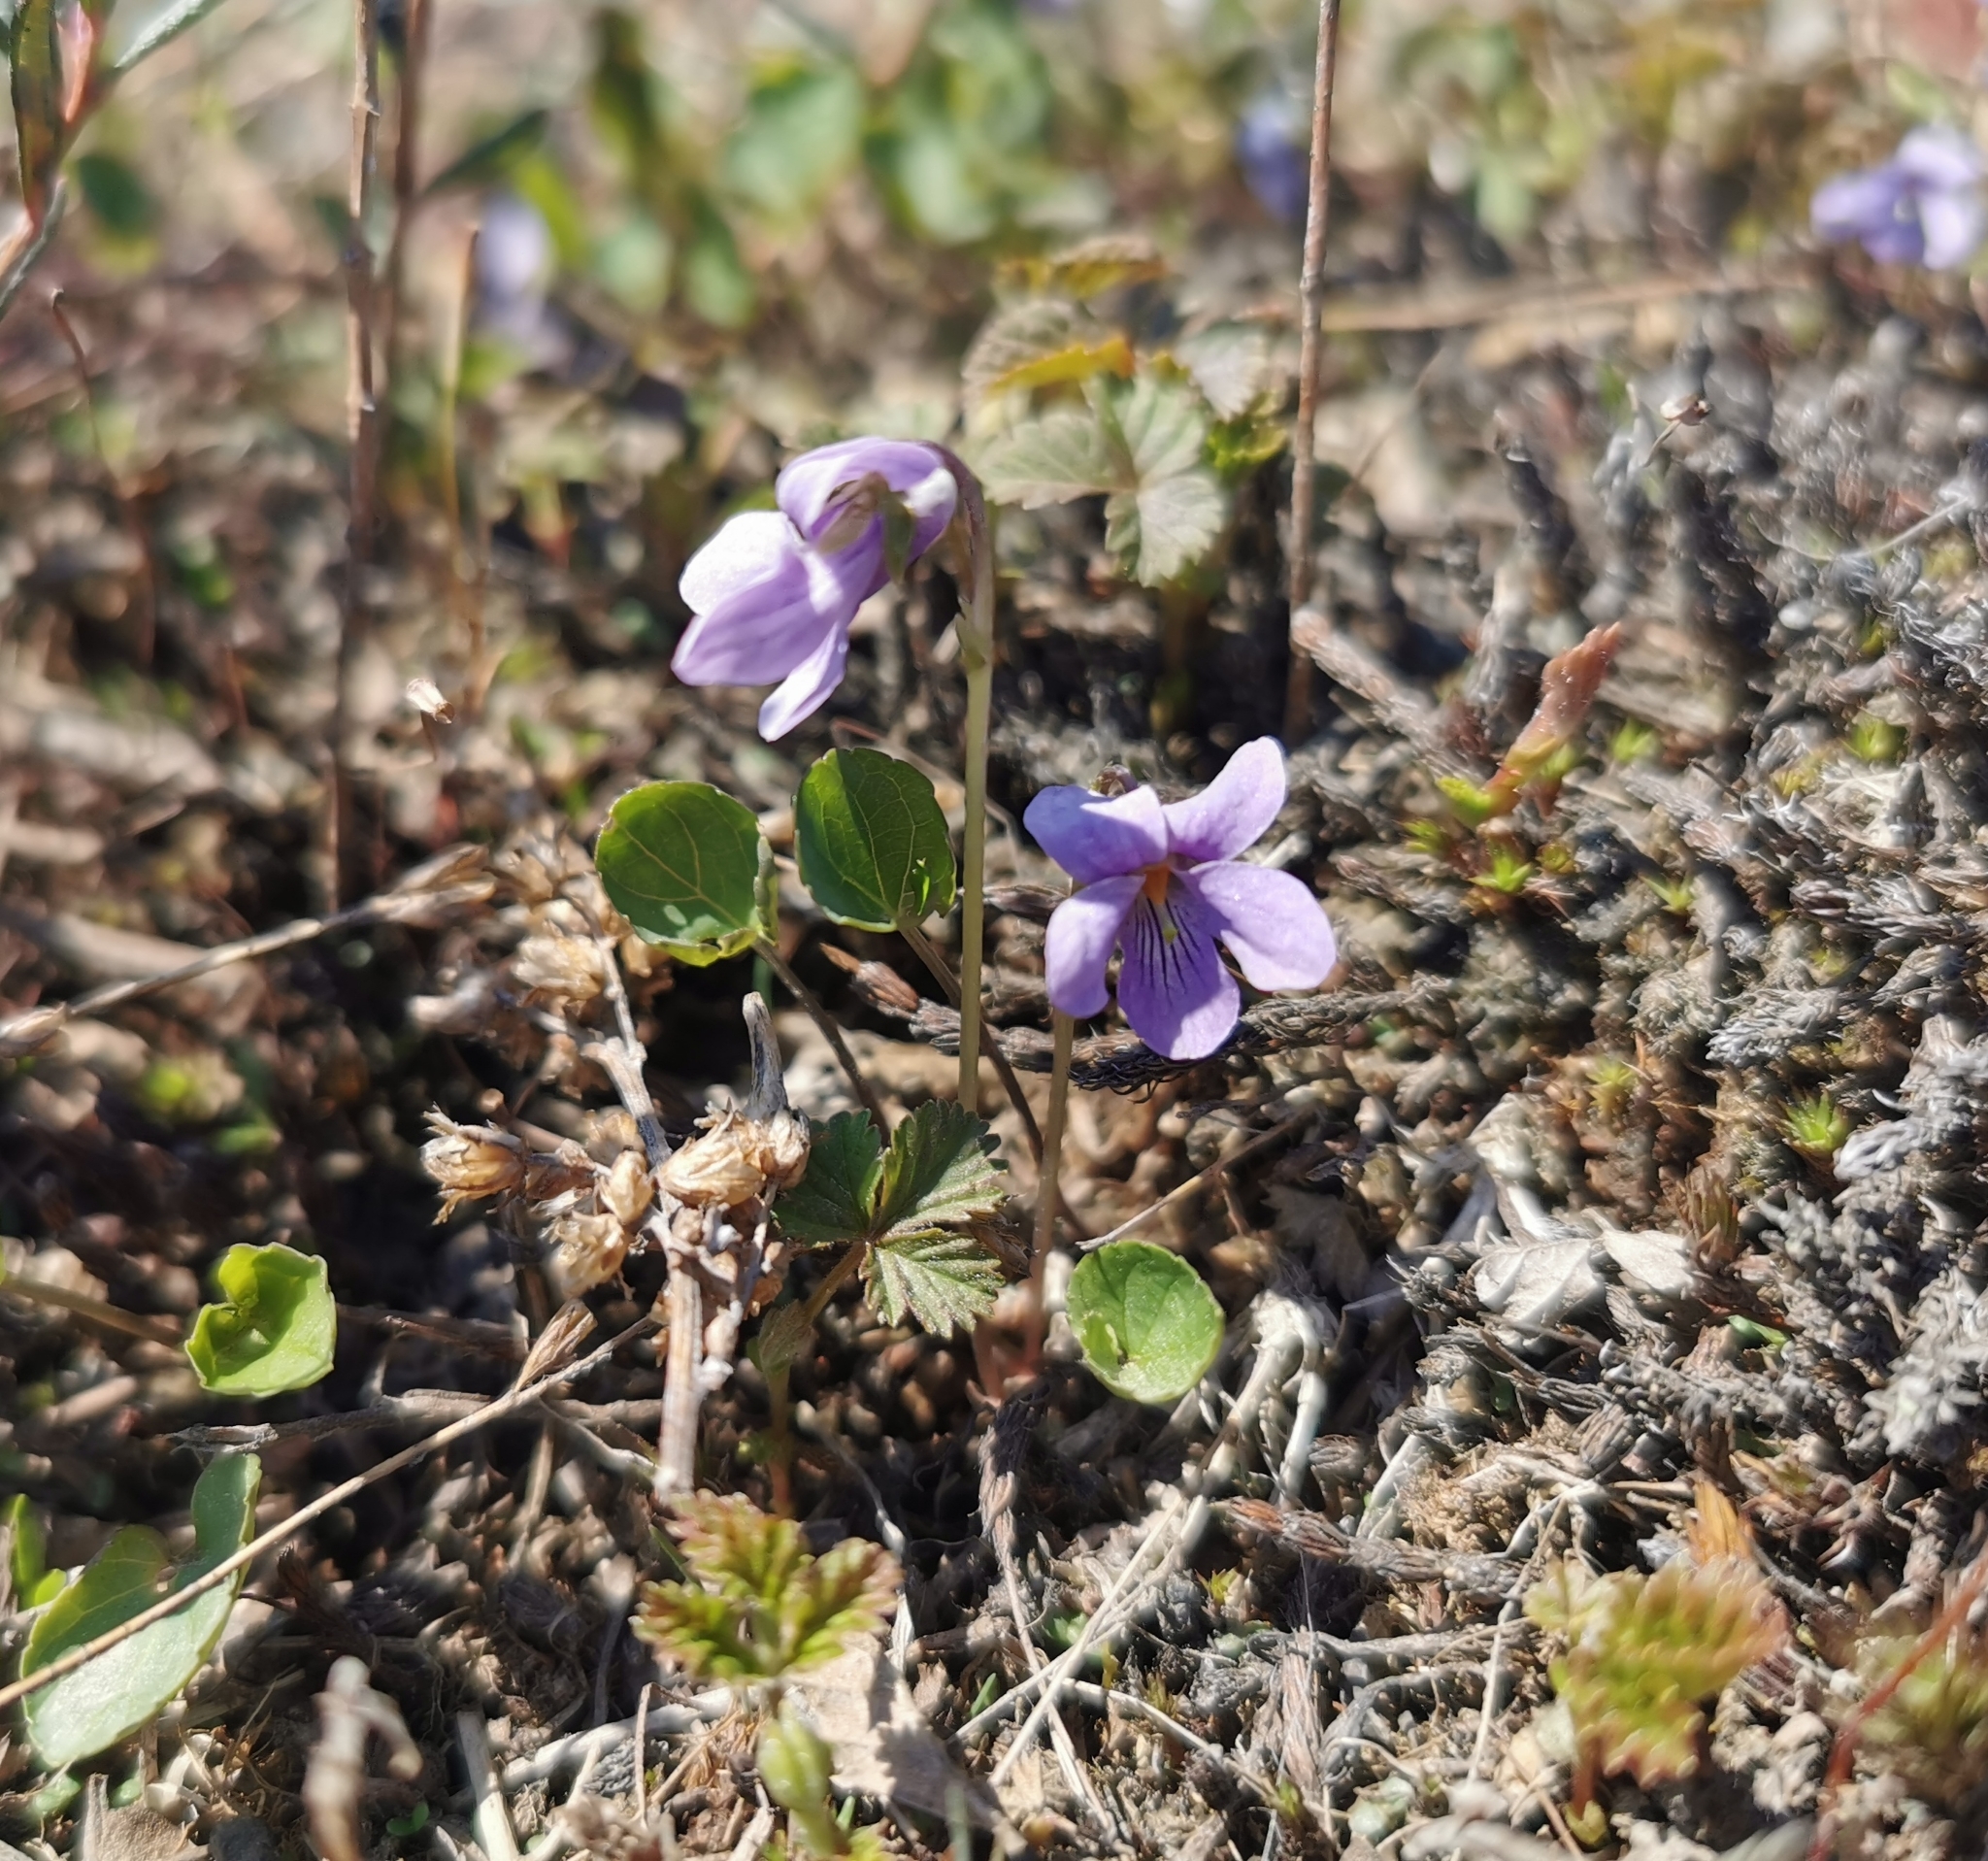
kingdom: Plantae
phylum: Tracheophyta
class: Magnoliopsida
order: Malpighiales
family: Violaceae
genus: Viola
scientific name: Viola epipsila
